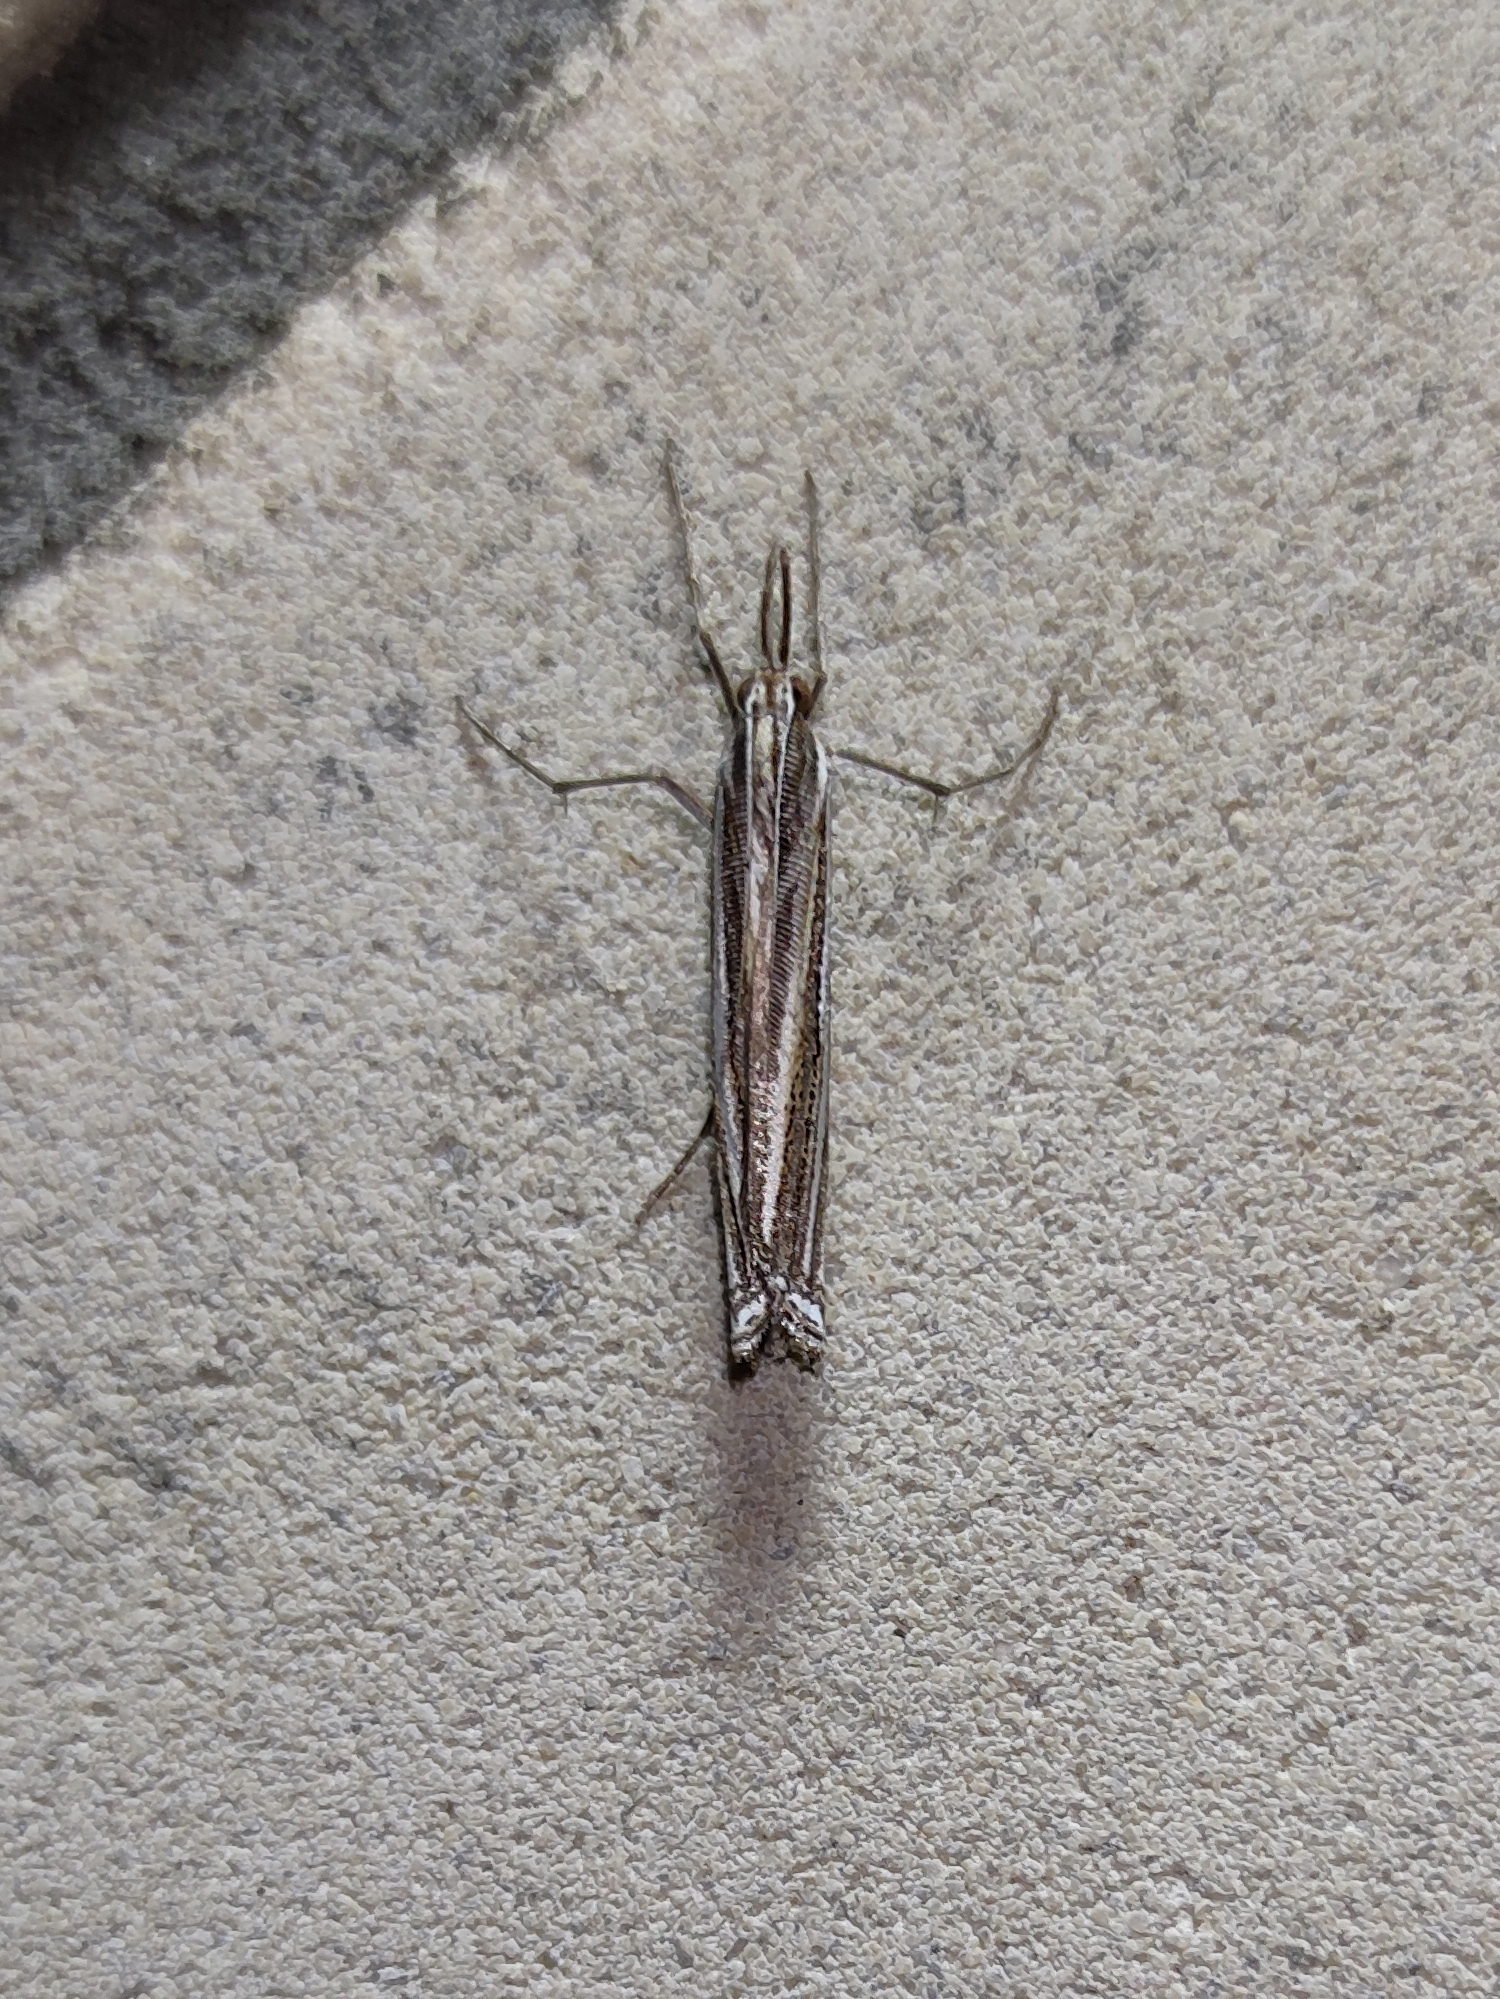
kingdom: Animalia
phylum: Arthropoda
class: Insecta
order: Lepidoptera
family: Crambidae
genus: Ancylolomia
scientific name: Ancylolomia palpella
